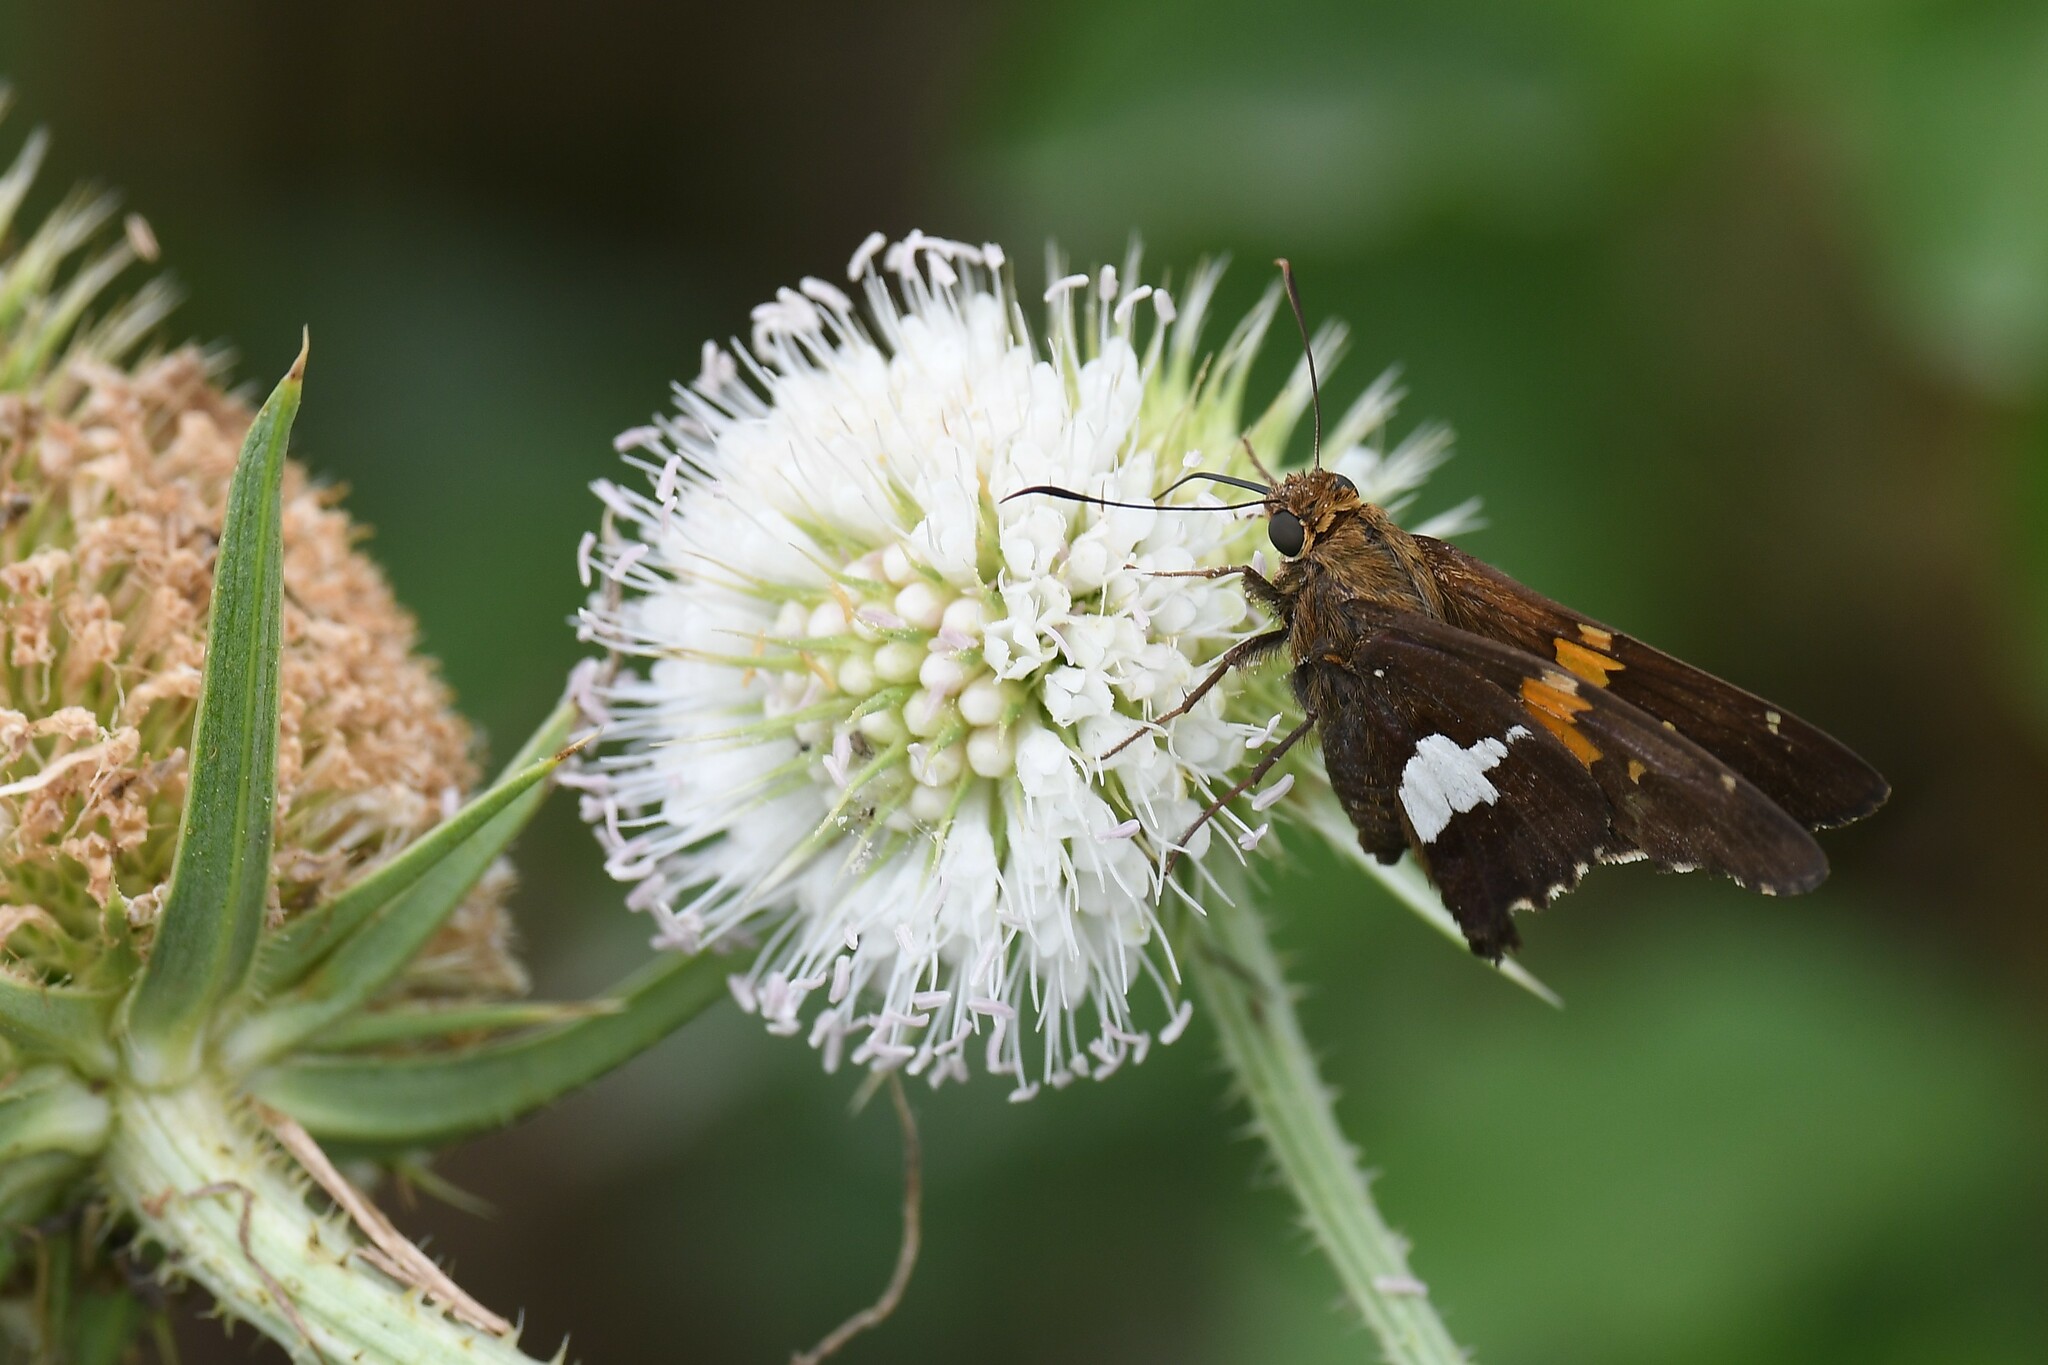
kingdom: Animalia
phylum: Arthropoda
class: Insecta
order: Lepidoptera
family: Hesperiidae
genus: Epargyreus
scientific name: Epargyreus clarus
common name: Silver-spotted skipper
